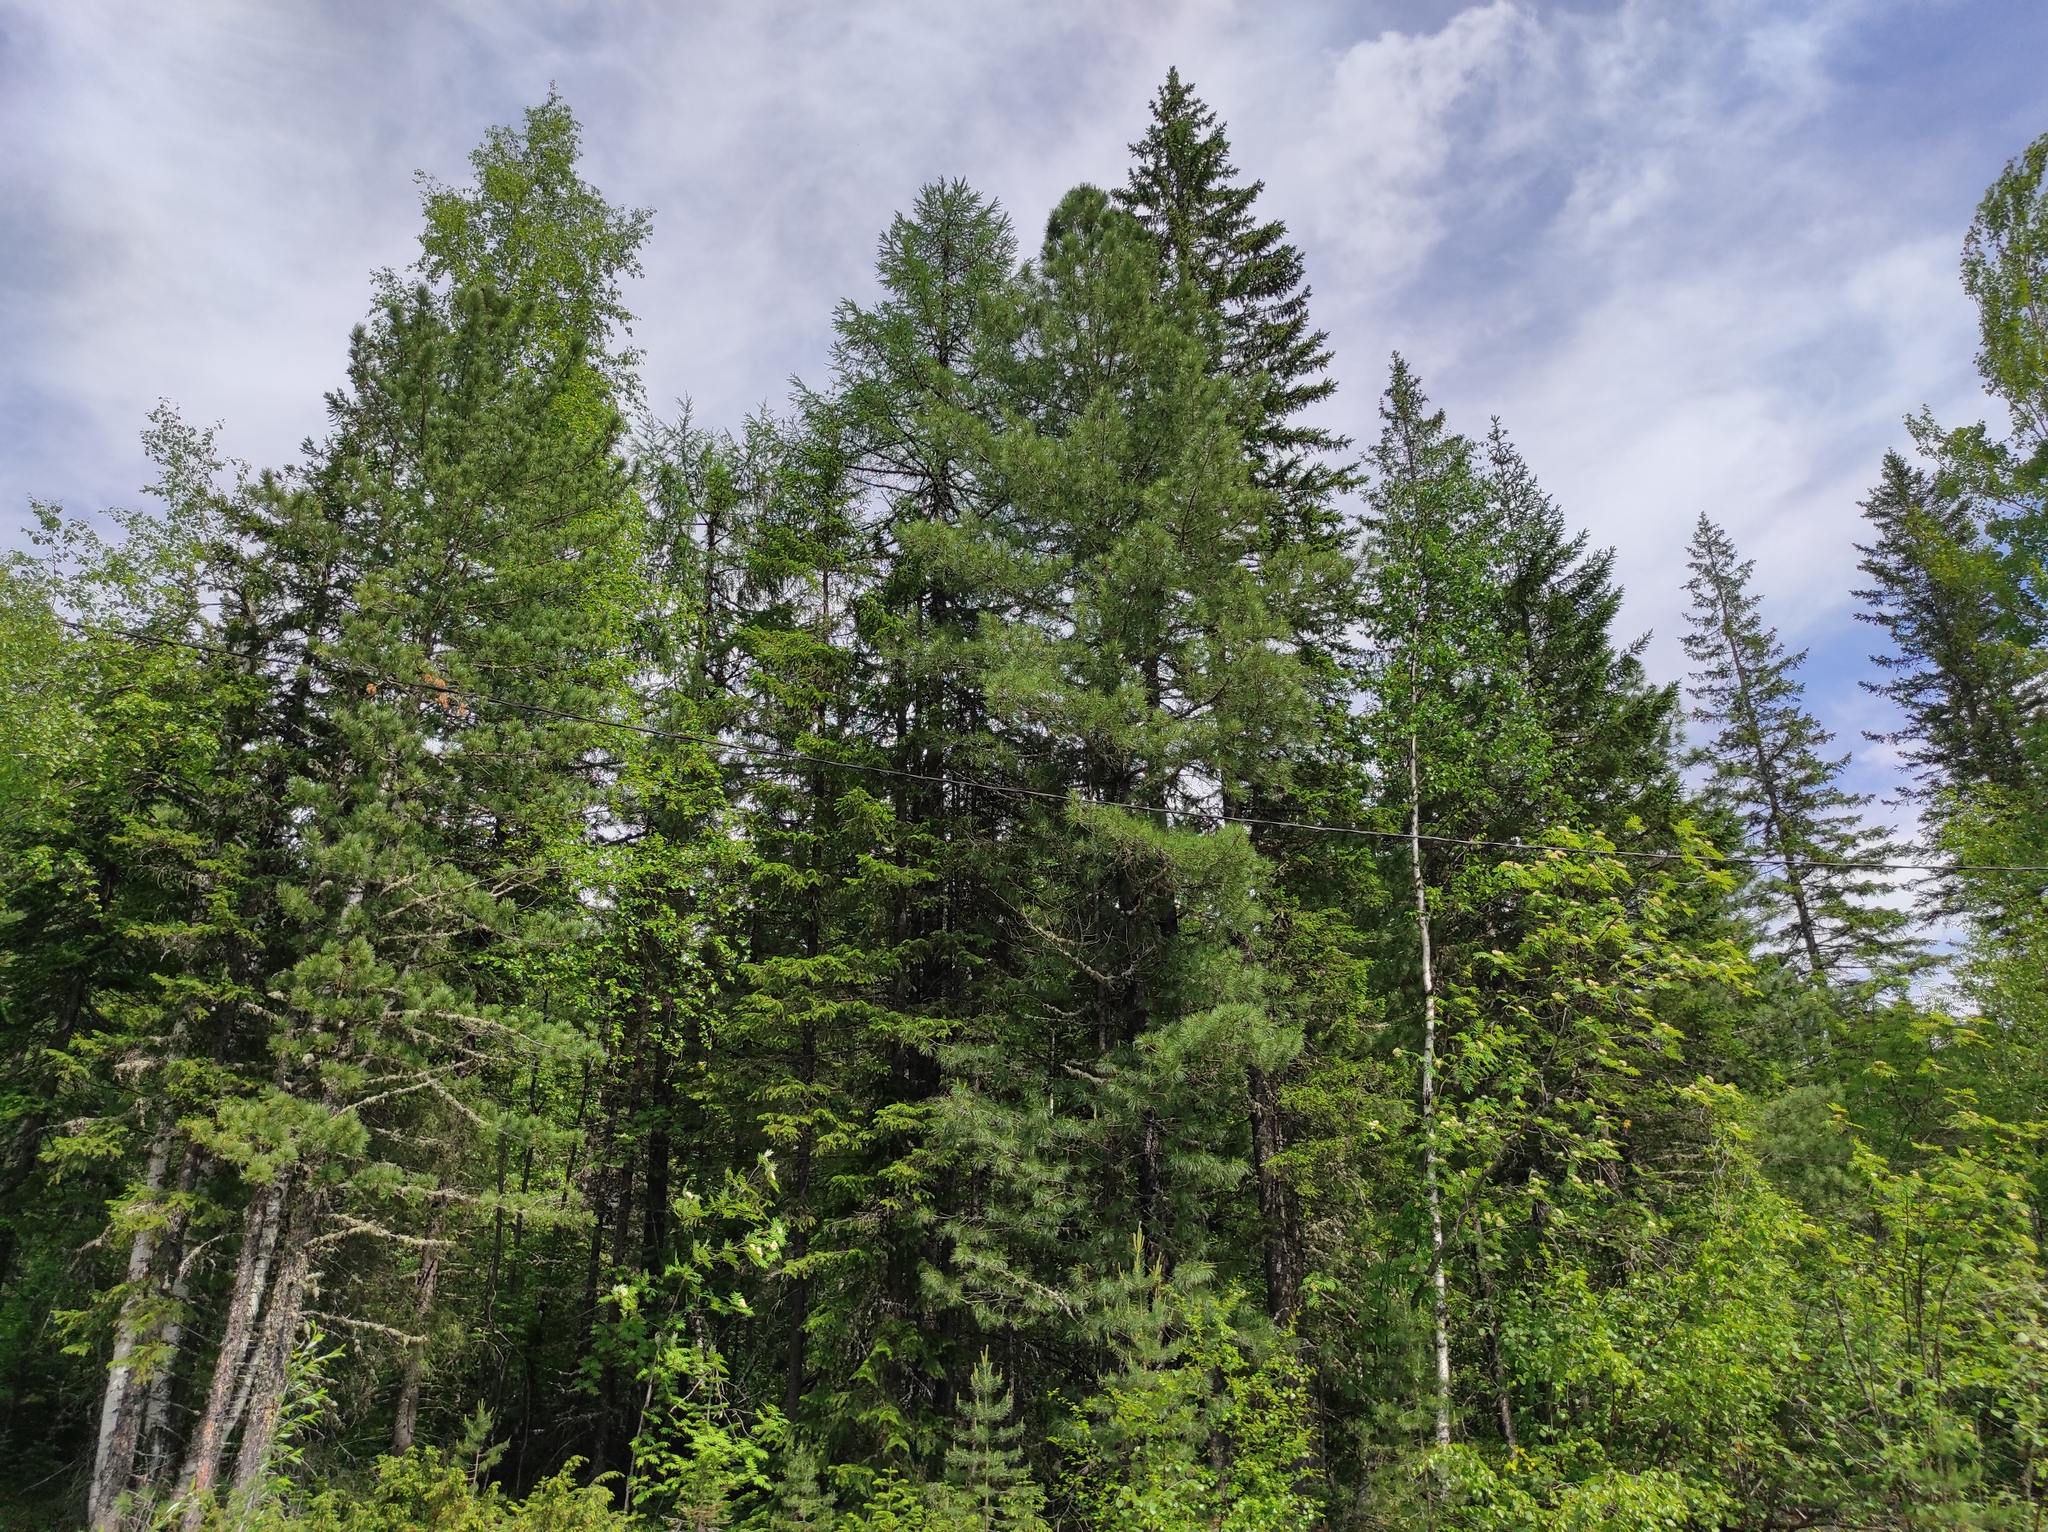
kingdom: Plantae
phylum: Tracheophyta
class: Pinopsida
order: Pinales
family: Cupressaceae
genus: Juniperus
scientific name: Juniperus communis
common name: Common juniper
